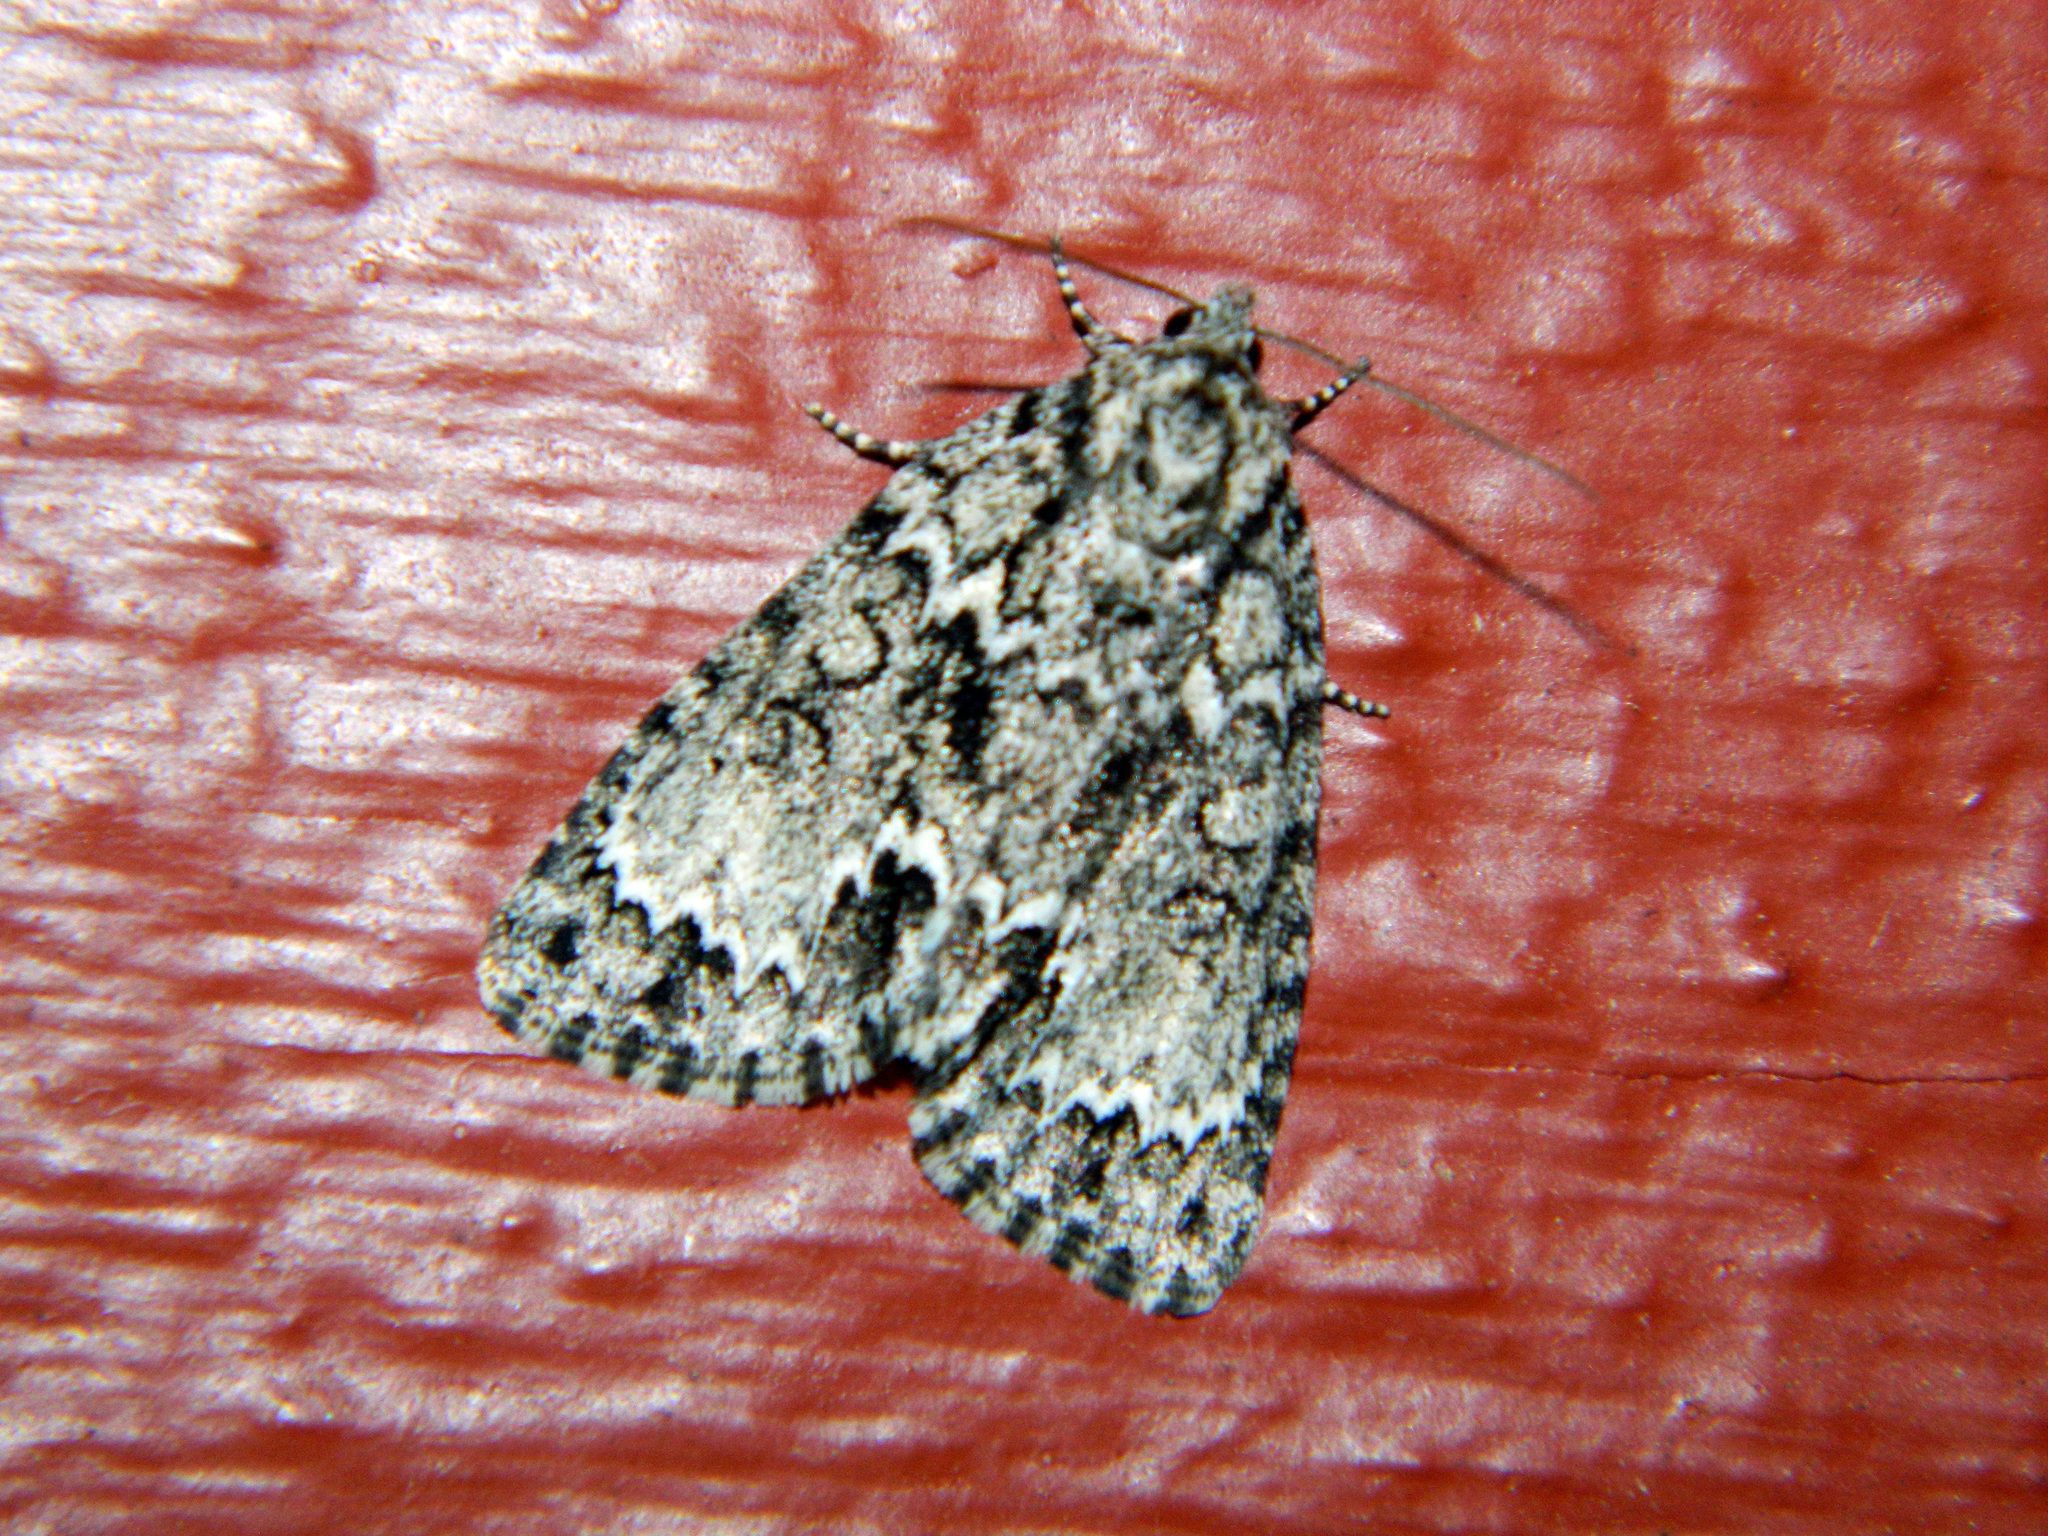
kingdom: Animalia
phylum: Arthropoda
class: Insecta
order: Lepidoptera
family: Noctuidae
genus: Acronicta
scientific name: Acronicta fragilis
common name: Fragile dagger
